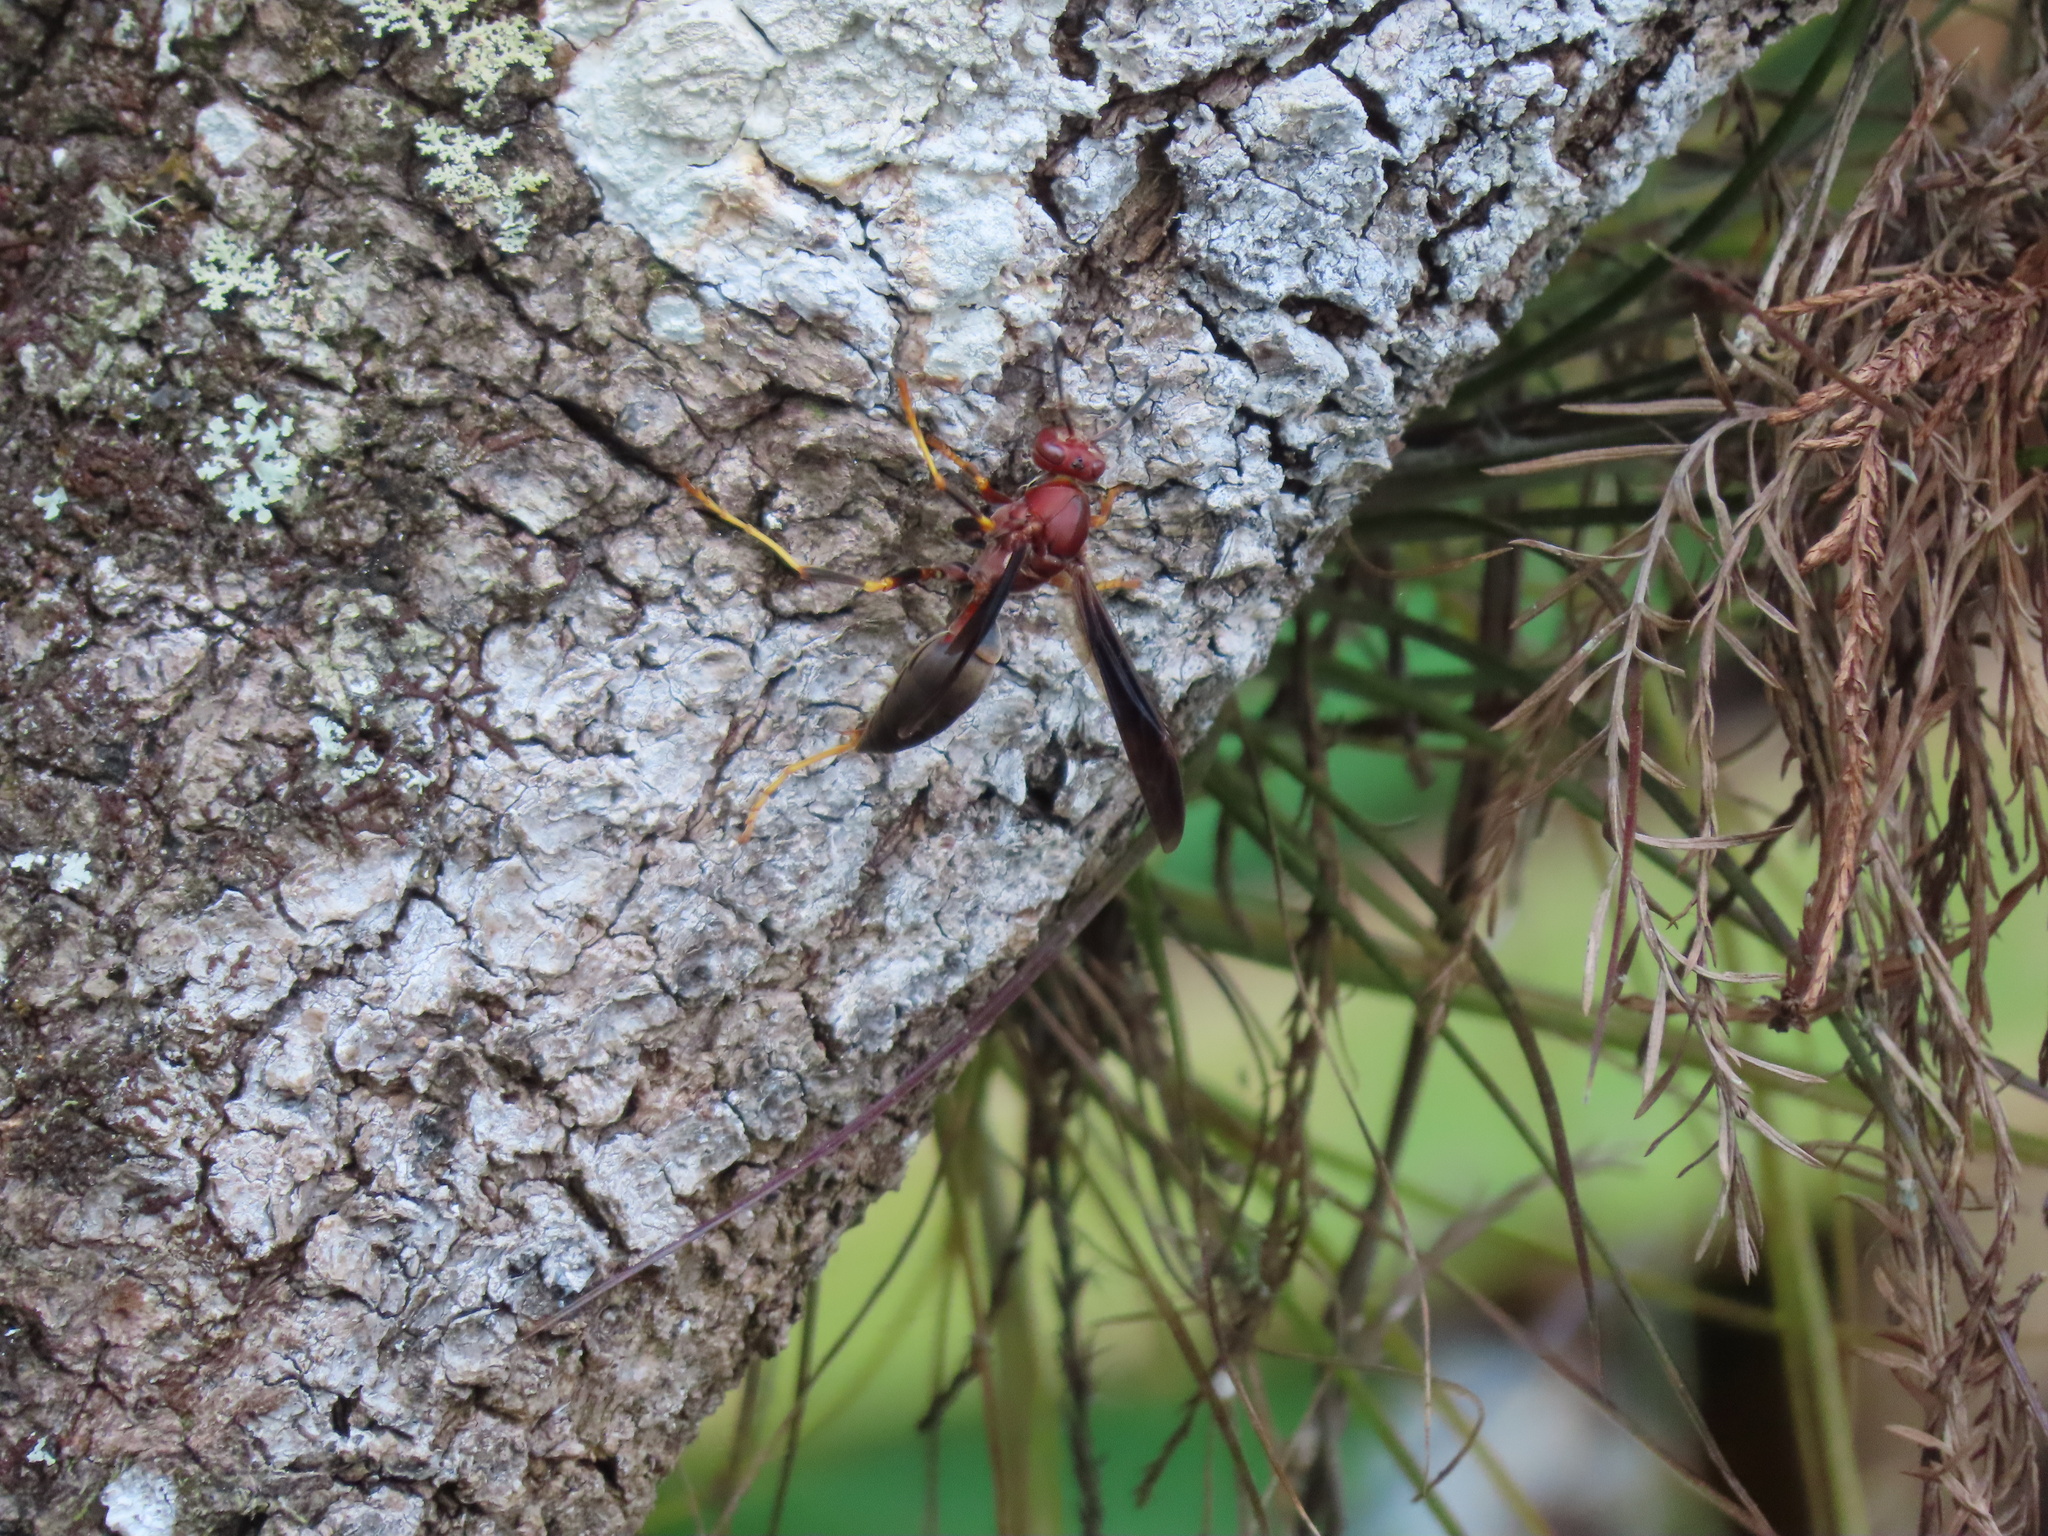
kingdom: Animalia
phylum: Arthropoda
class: Insecta
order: Hymenoptera
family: Eumenidae
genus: Polistes
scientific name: Polistes metricus
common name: Metric paper wasp
